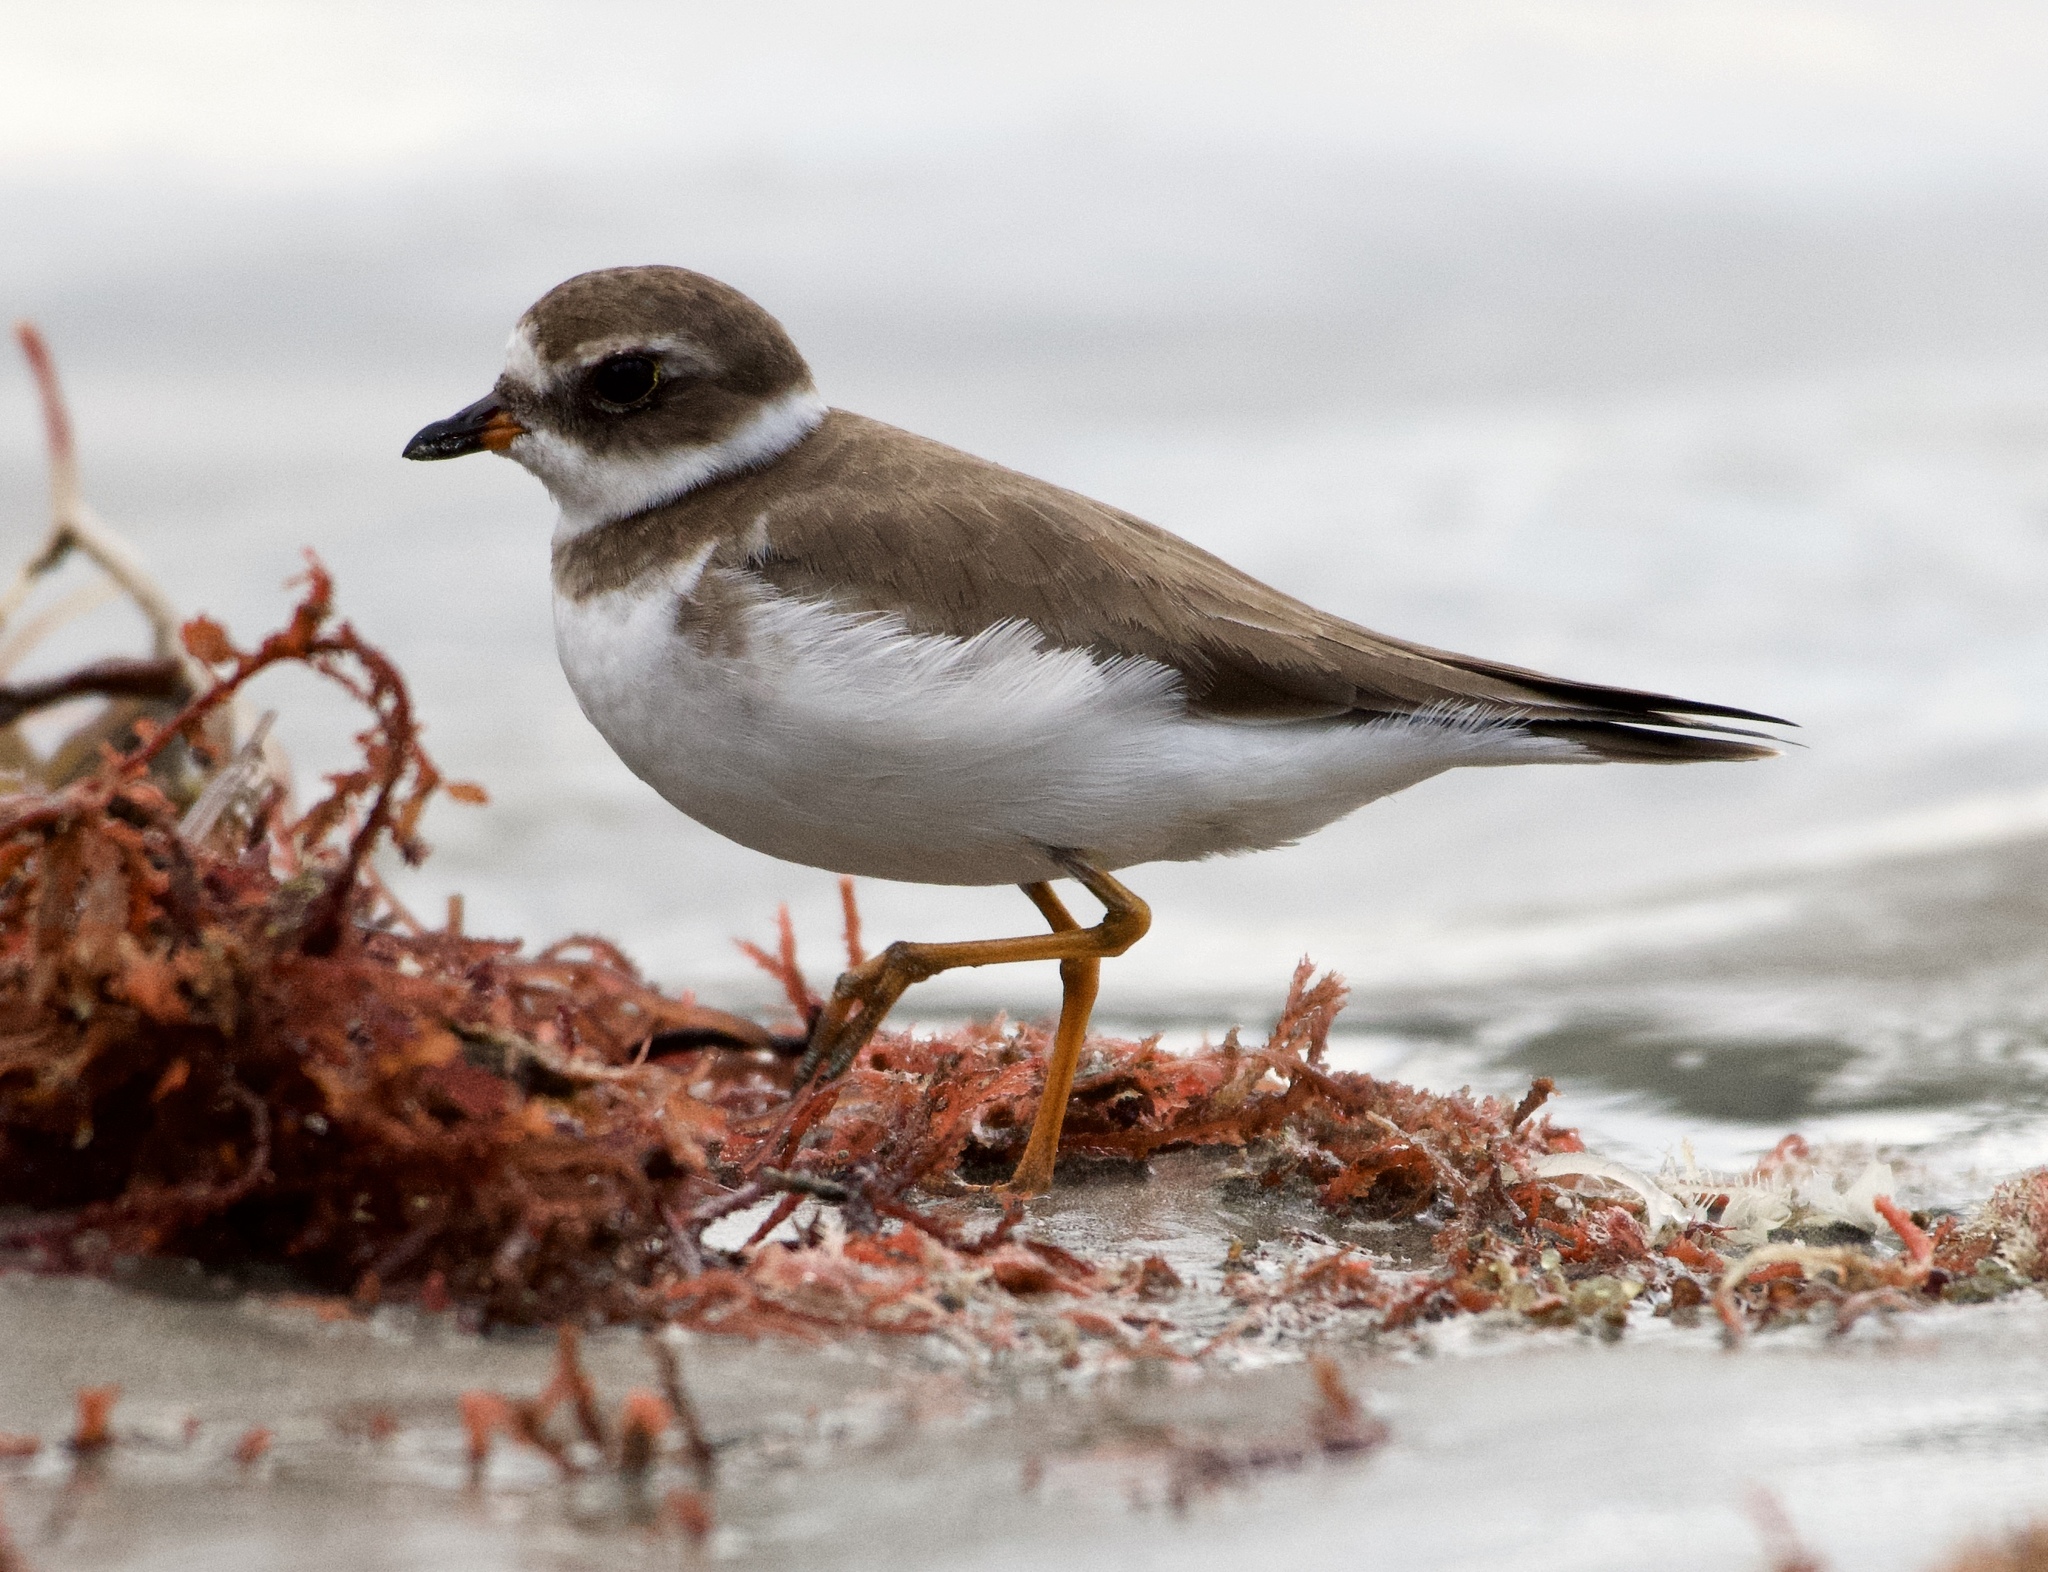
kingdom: Animalia
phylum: Chordata
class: Aves
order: Charadriiformes
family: Charadriidae
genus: Charadrius
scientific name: Charadrius semipalmatus
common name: Semipalmated plover
